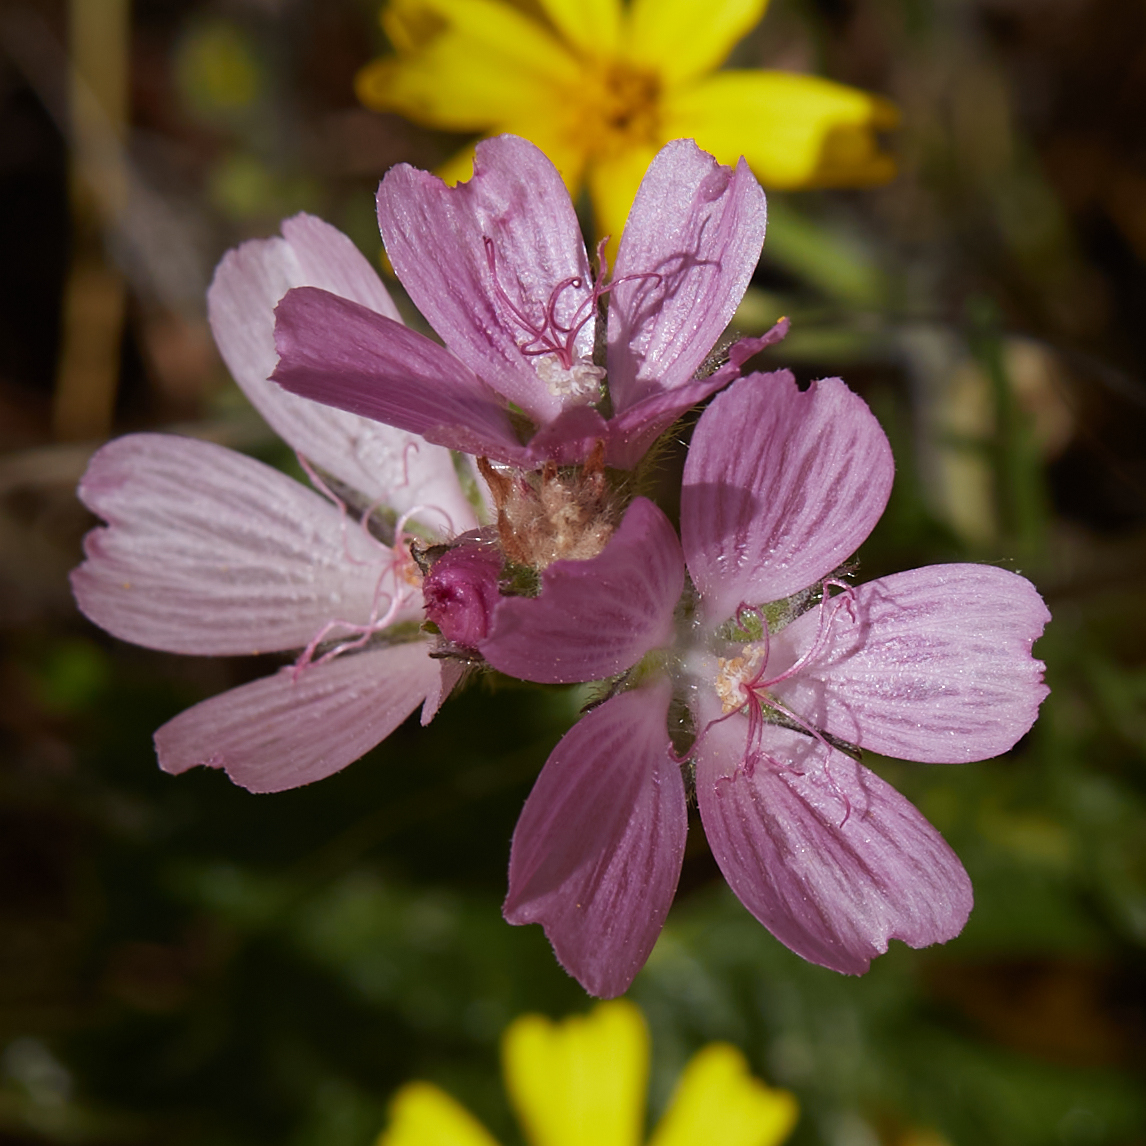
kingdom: Plantae
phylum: Tracheophyta
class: Magnoliopsida
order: Malvales
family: Malvaceae
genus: Sidalcea
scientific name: Sidalcea malviflora
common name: Greek mallow
